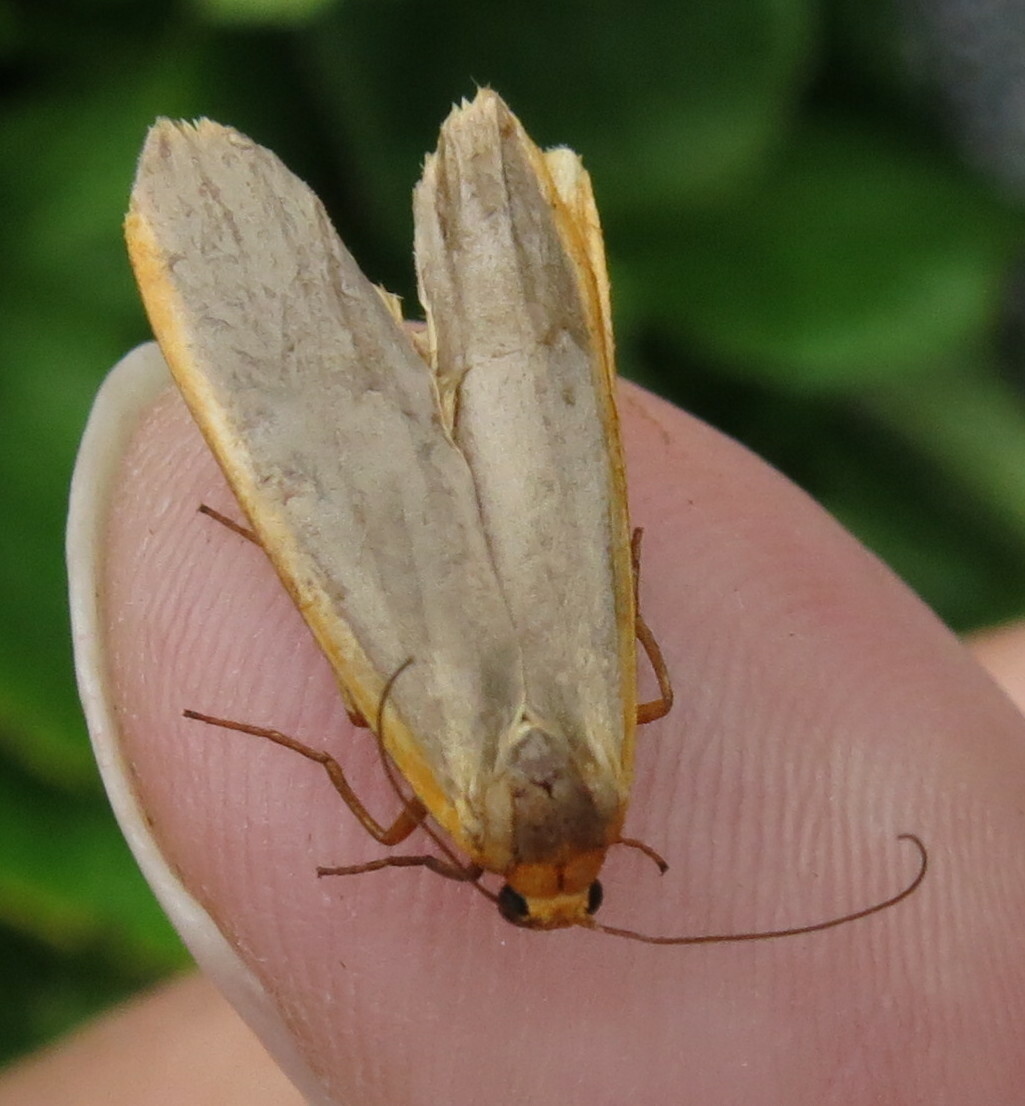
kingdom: Animalia
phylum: Arthropoda
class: Insecta
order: Lepidoptera
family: Erebidae
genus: Nyea
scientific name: Nyea lurideola
